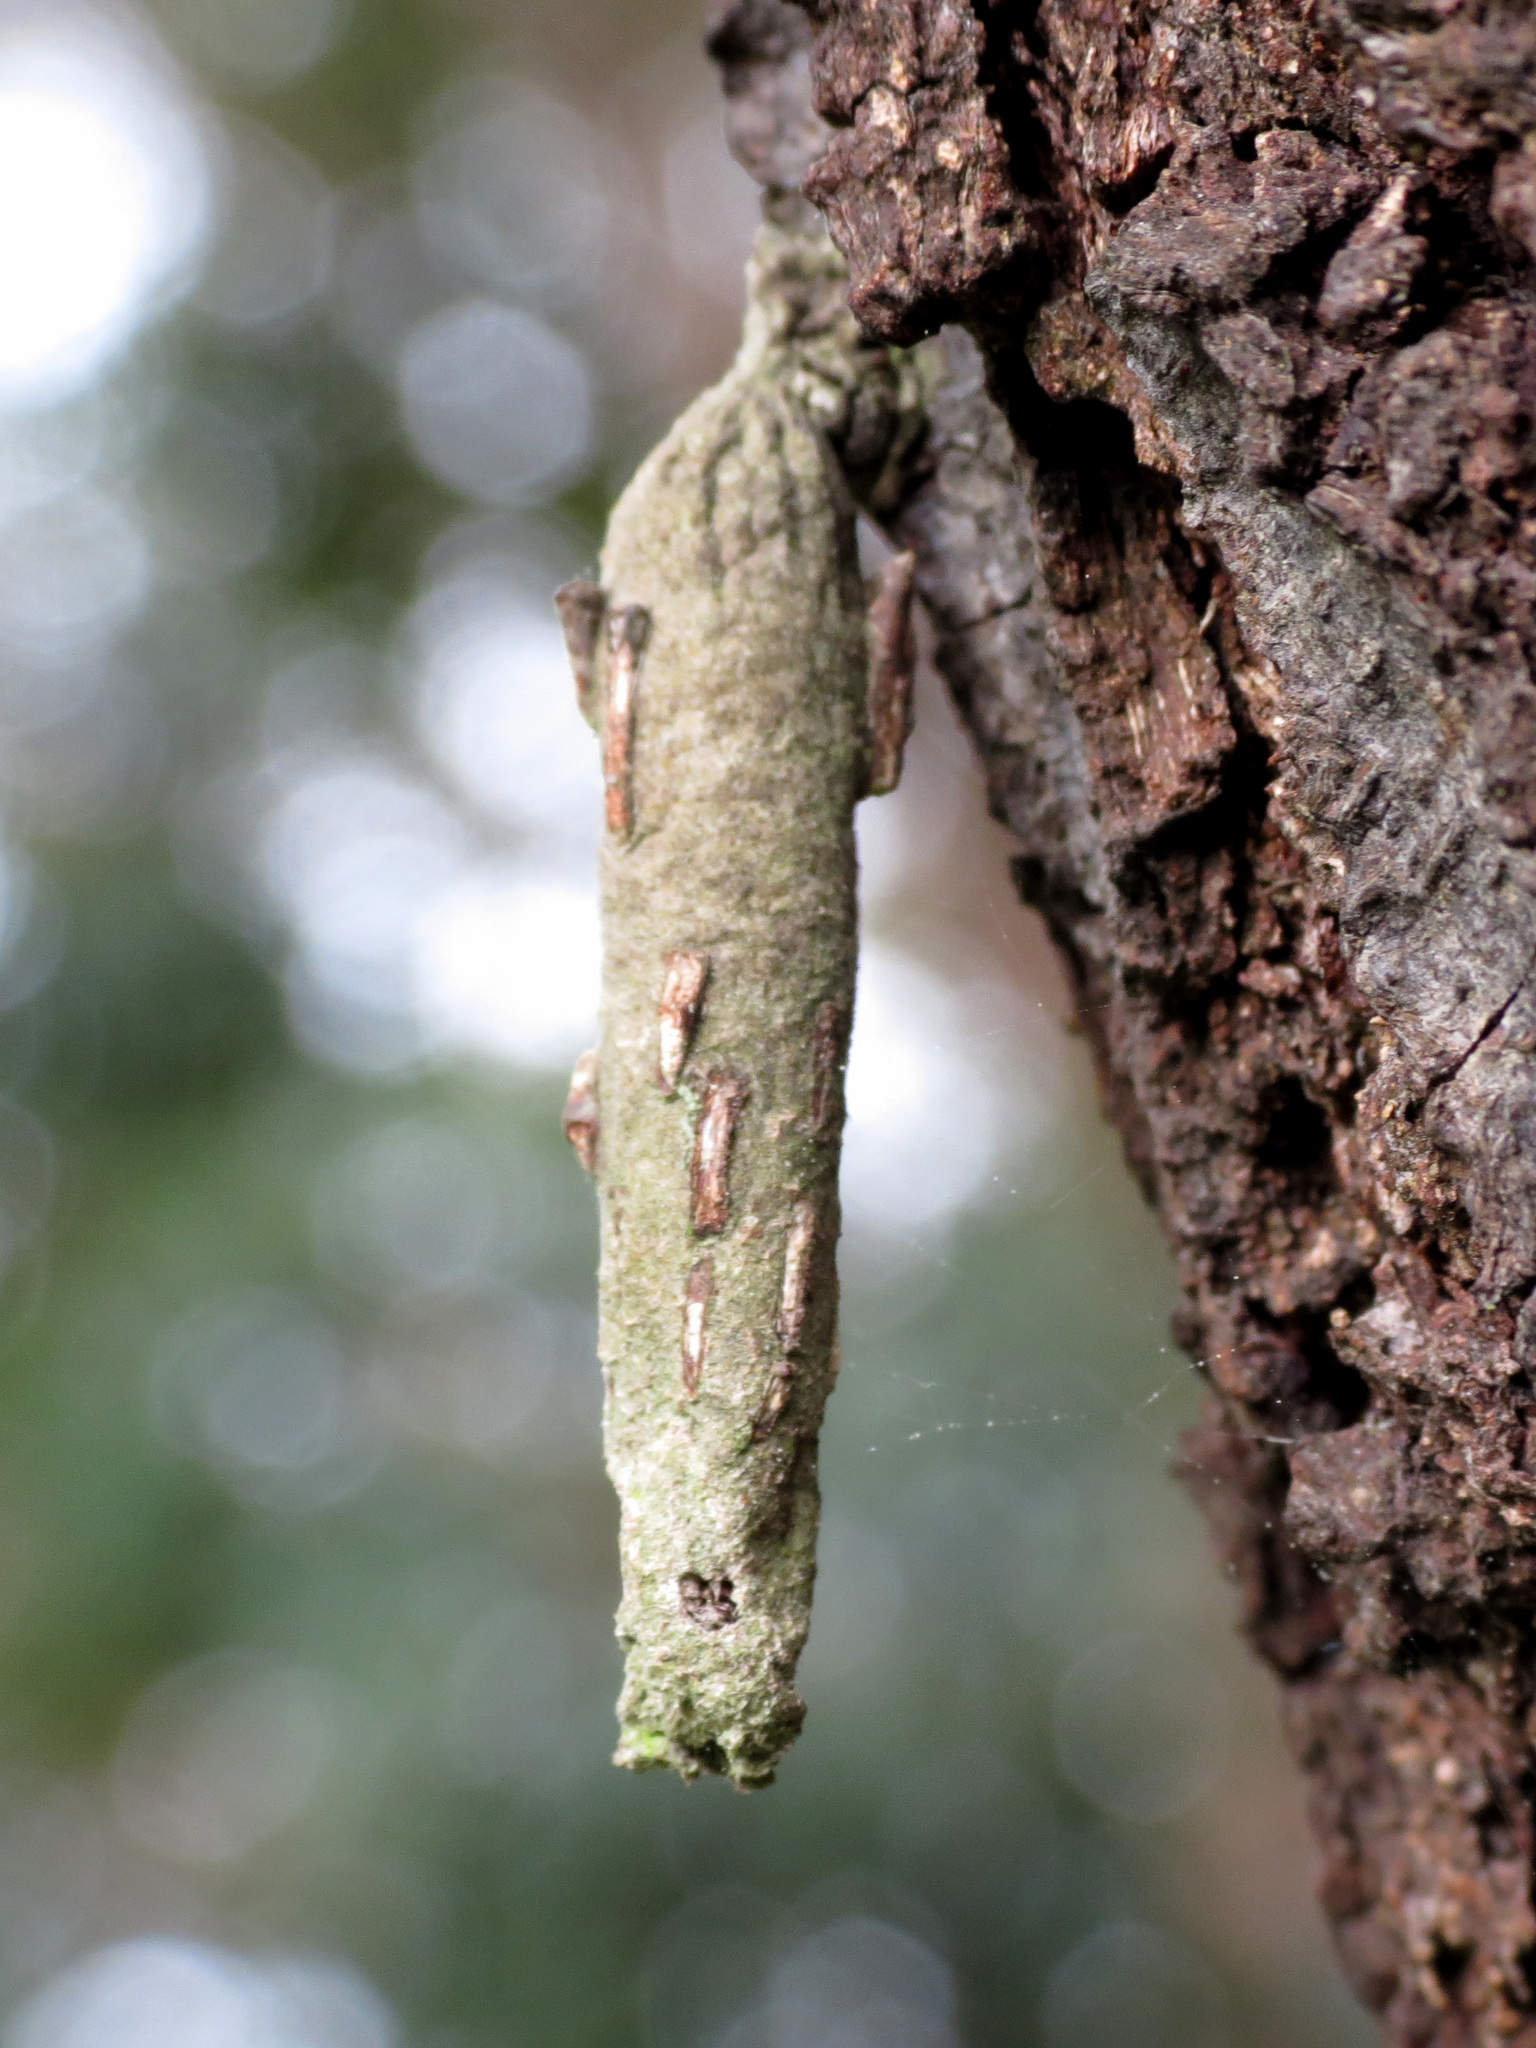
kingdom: Animalia
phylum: Arthropoda
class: Insecta
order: Lepidoptera
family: Psychidae
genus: Liothula
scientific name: Liothula omnivora
